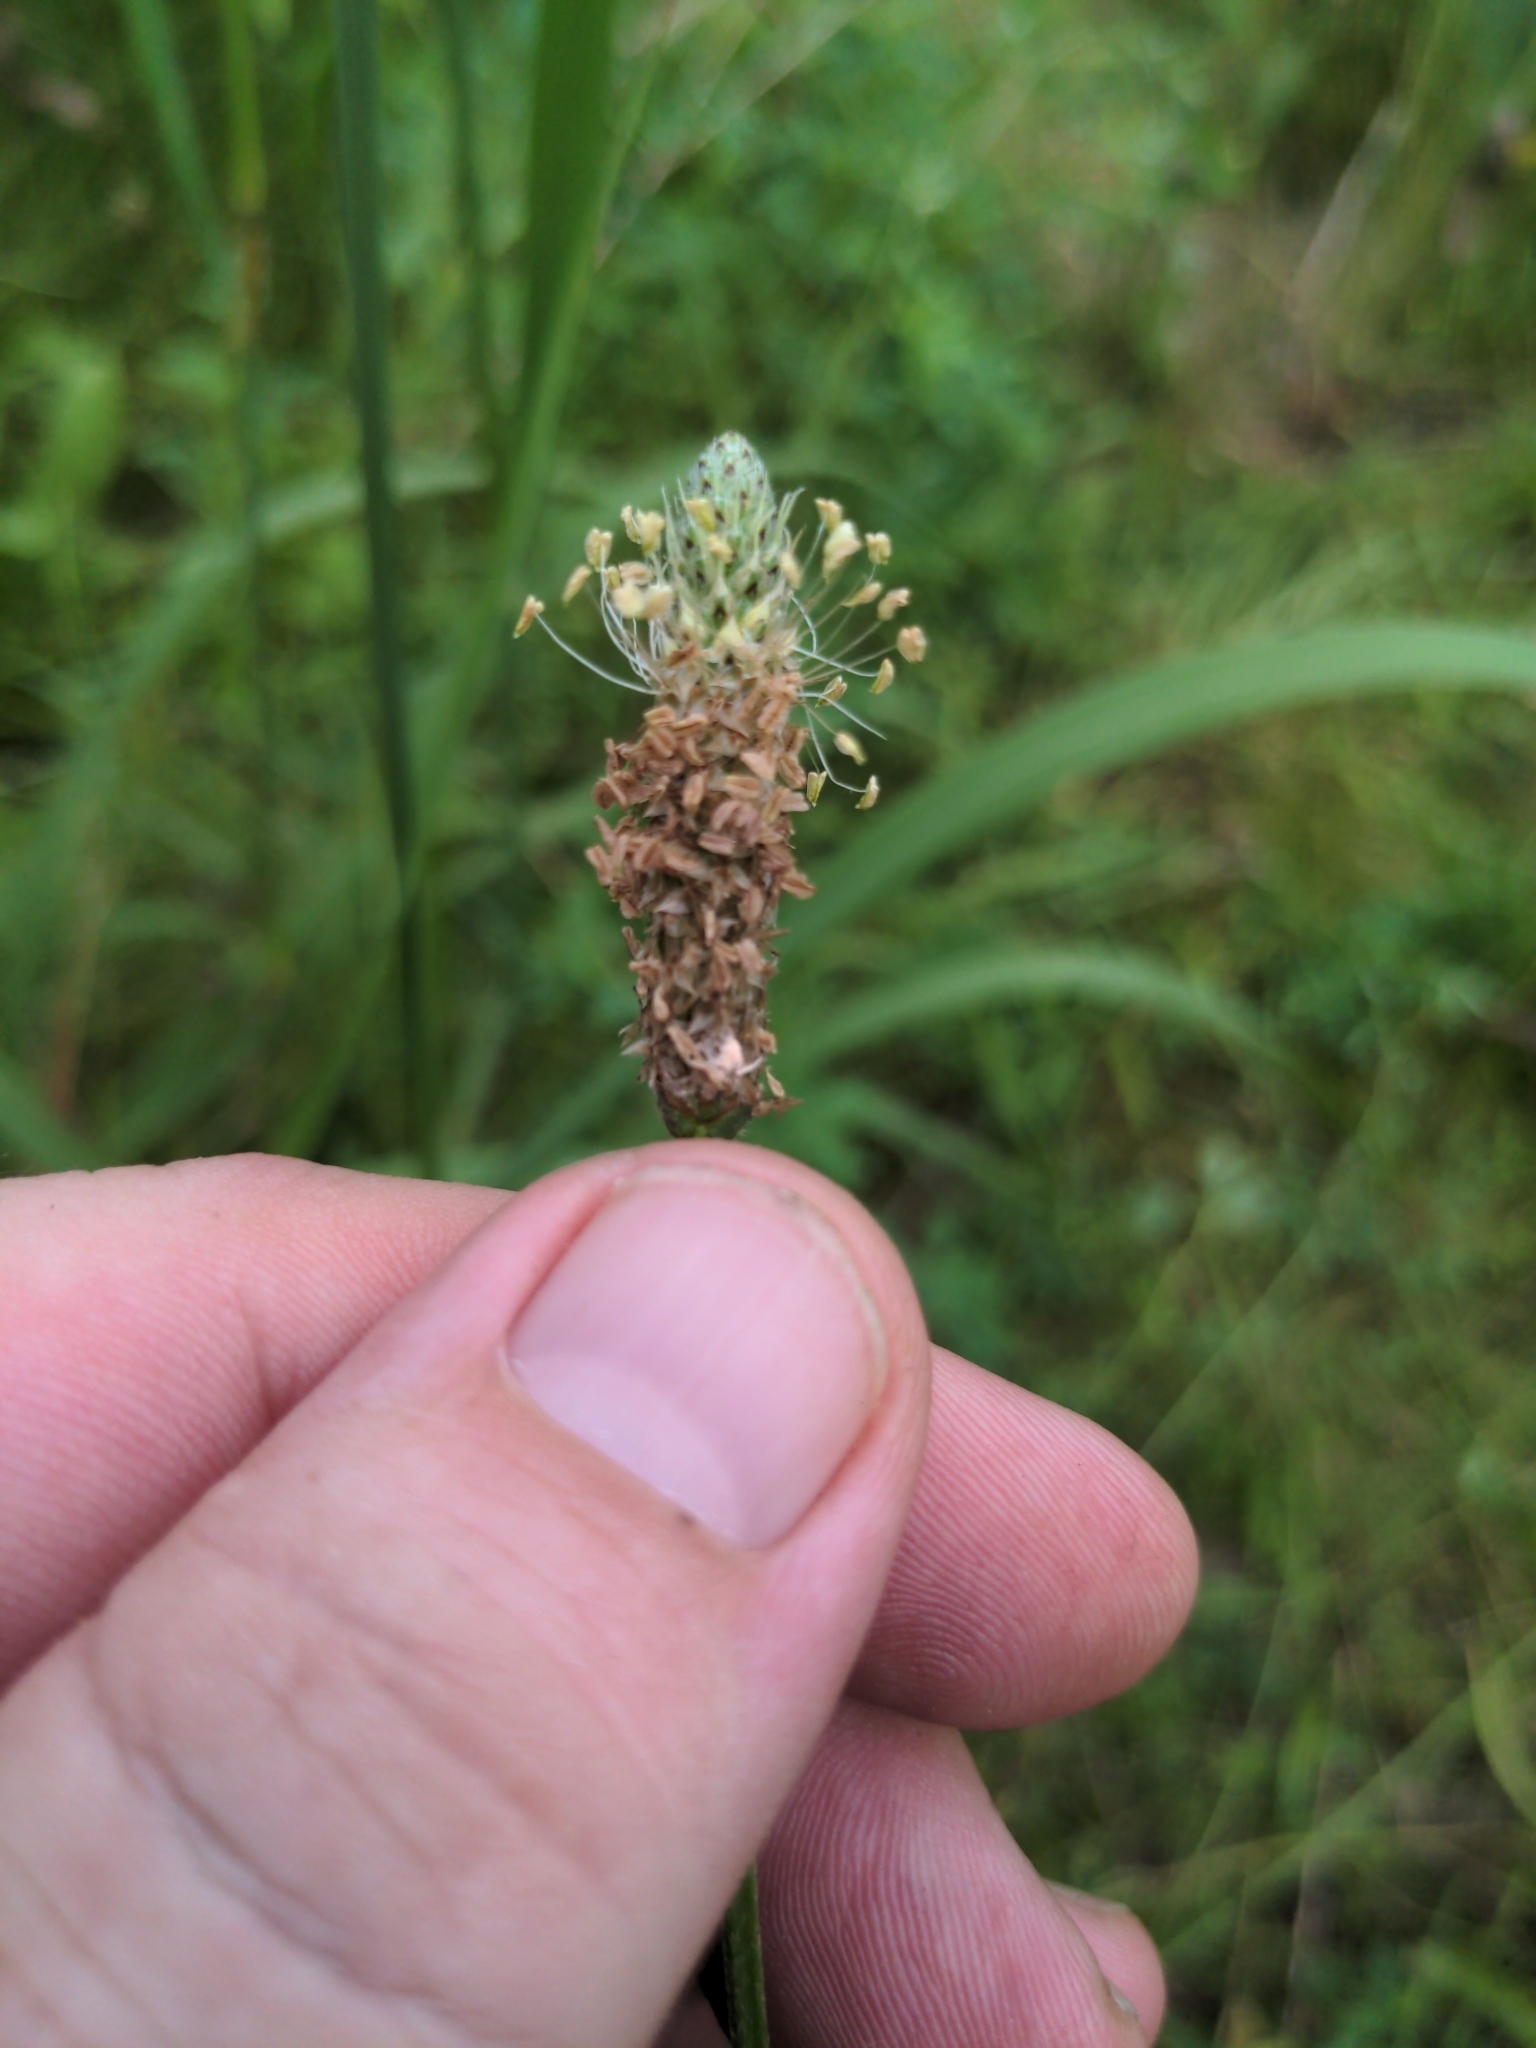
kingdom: Plantae
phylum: Tracheophyta
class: Magnoliopsida
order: Lamiales
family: Plantaginaceae
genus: Plantago
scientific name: Plantago lanceolata
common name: Ribwort plantain
